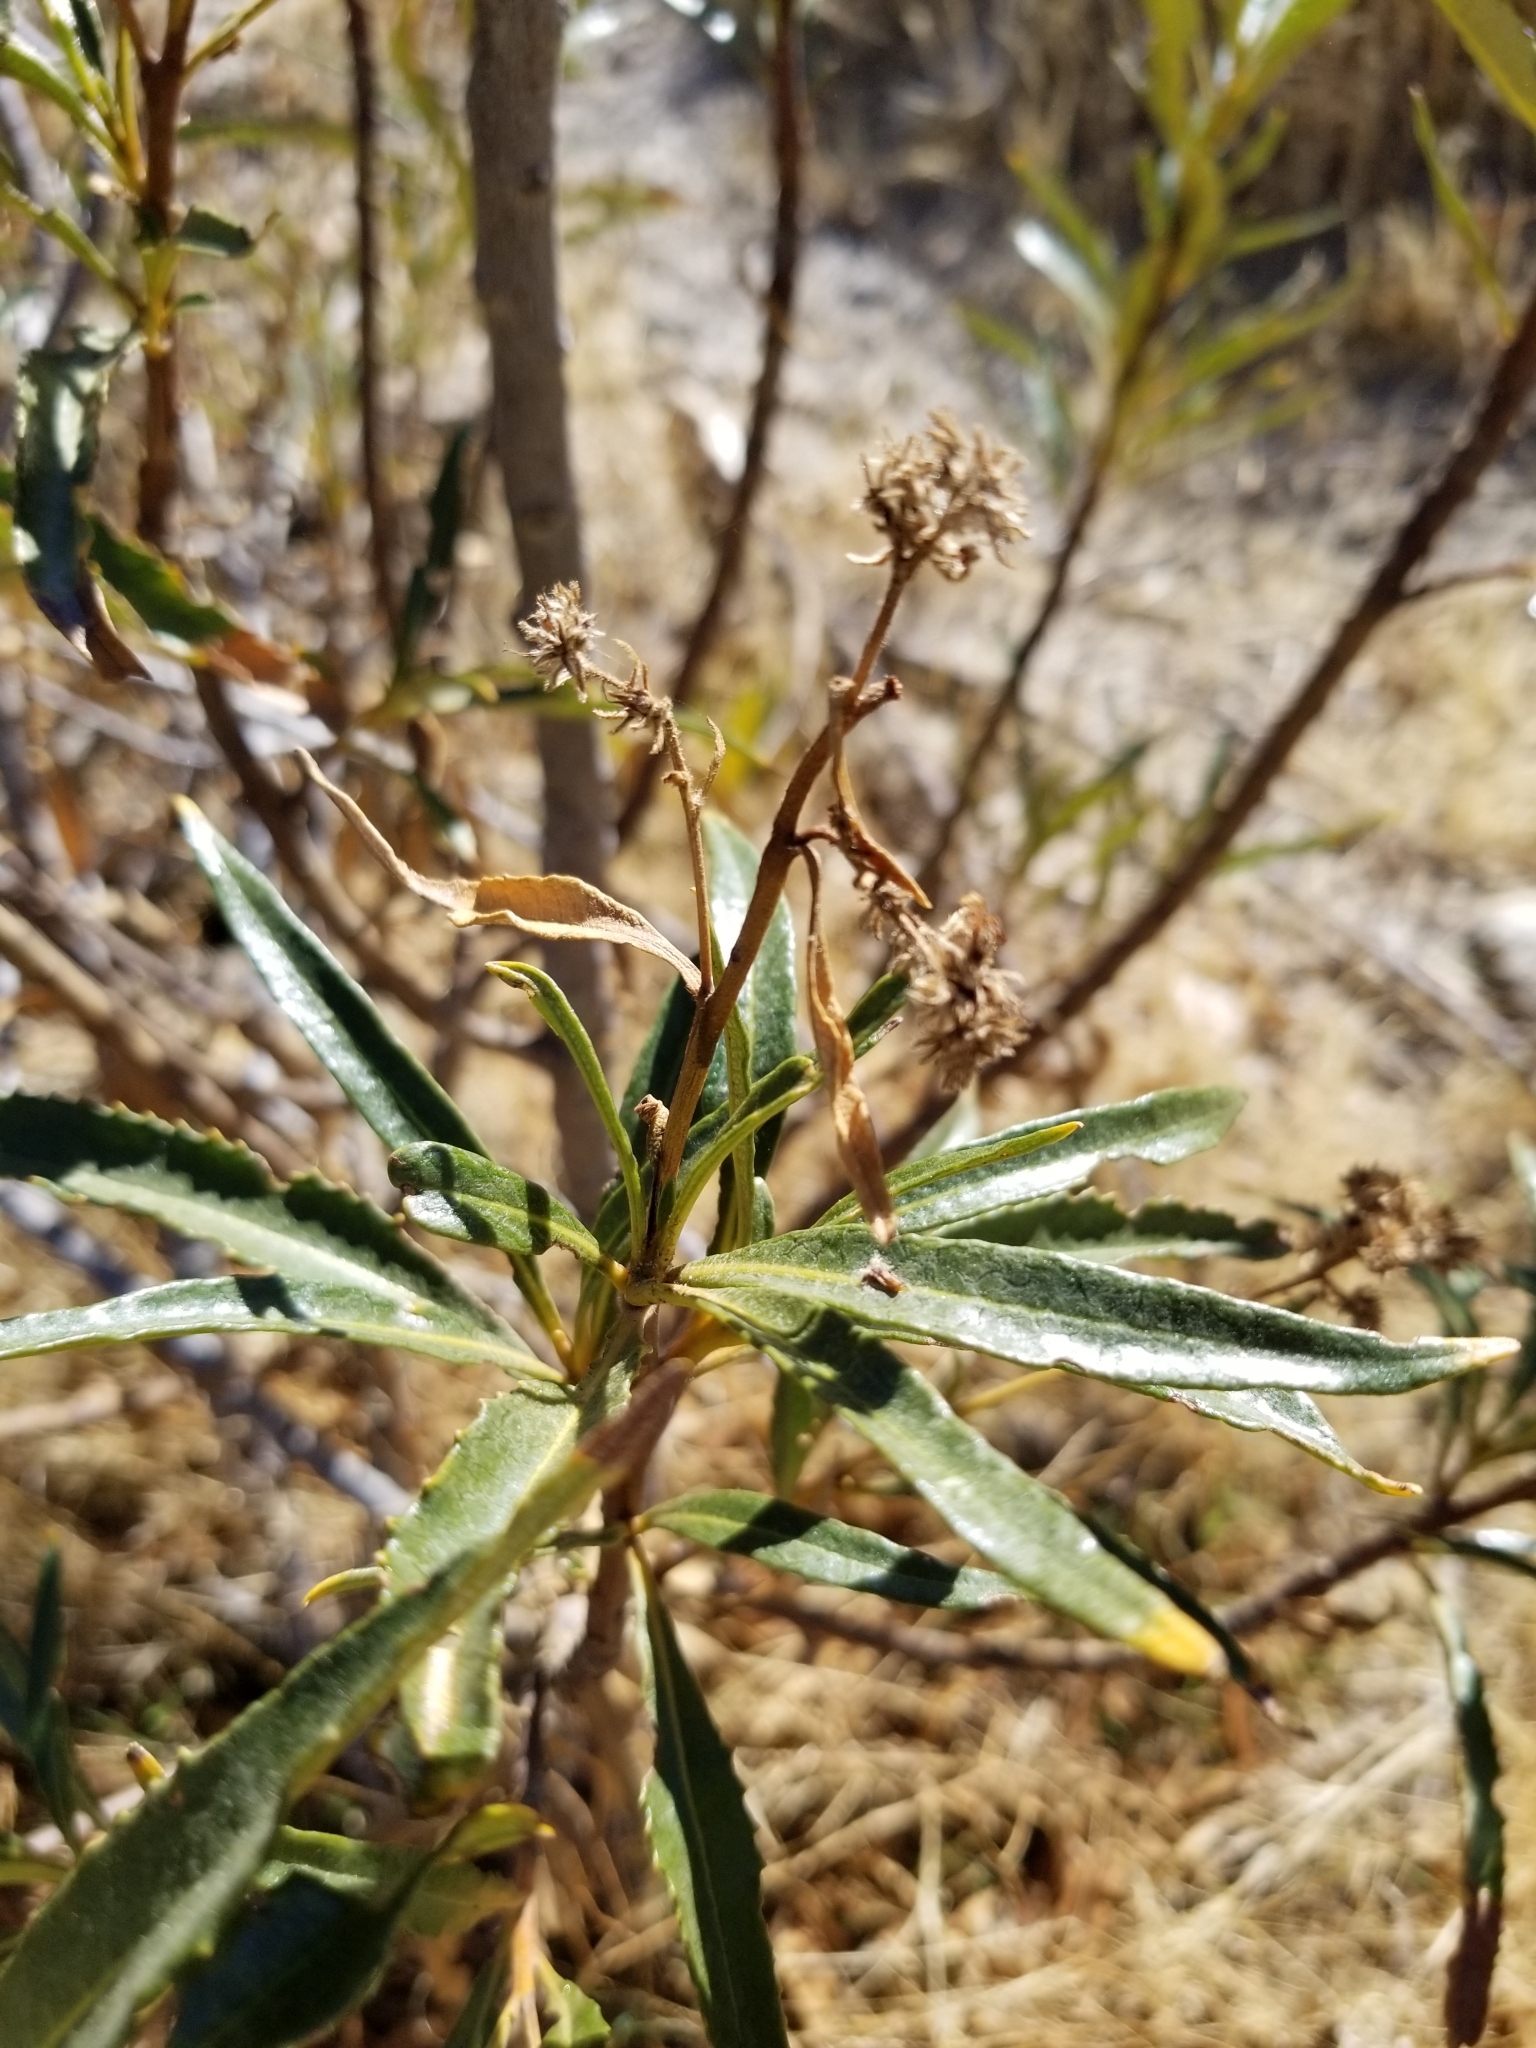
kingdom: Plantae
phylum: Tracheophyta
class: Magnoliopsida
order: Boraginales
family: Namaceae
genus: Eriodictyon
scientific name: Eriodictyon trichocalyx
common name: Hairy yerba-santa
